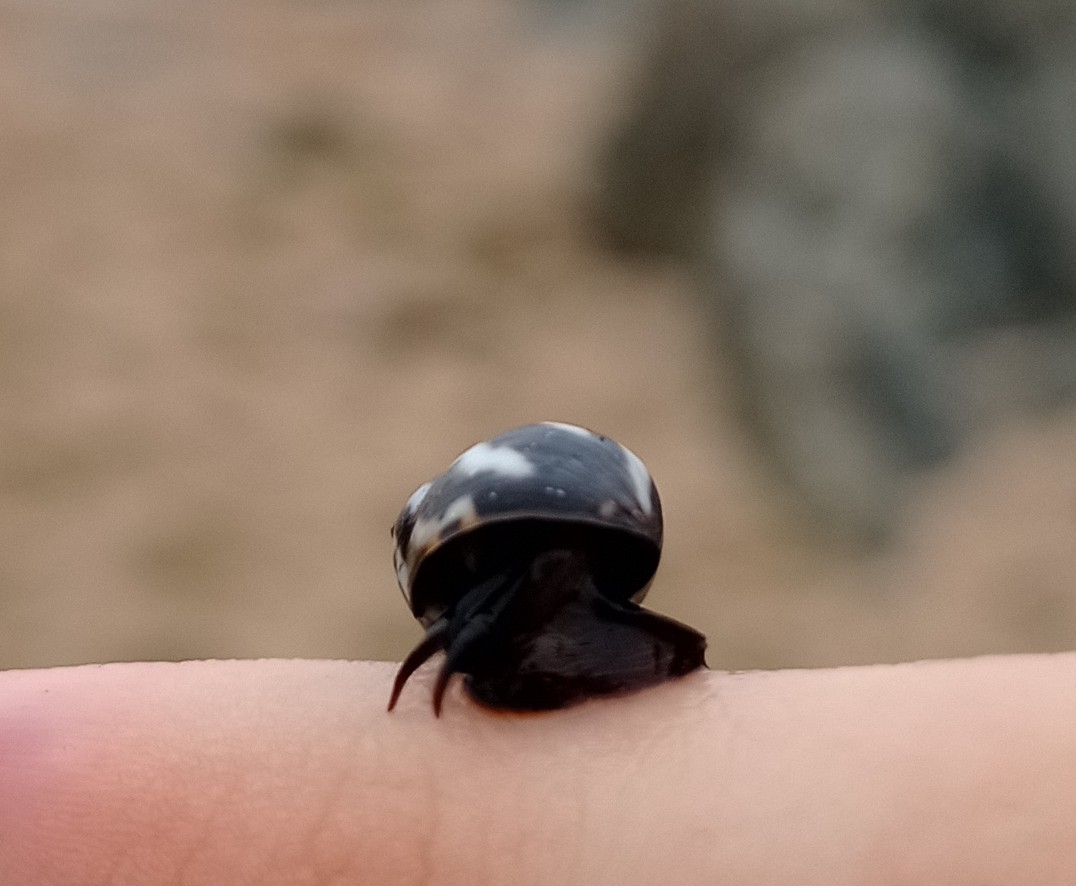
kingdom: Animalia
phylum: Mollusca
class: Gastropoda
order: Littorinimorpha
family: Littorinidae
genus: Echinolittorina
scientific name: Echinolittorina peruviana
